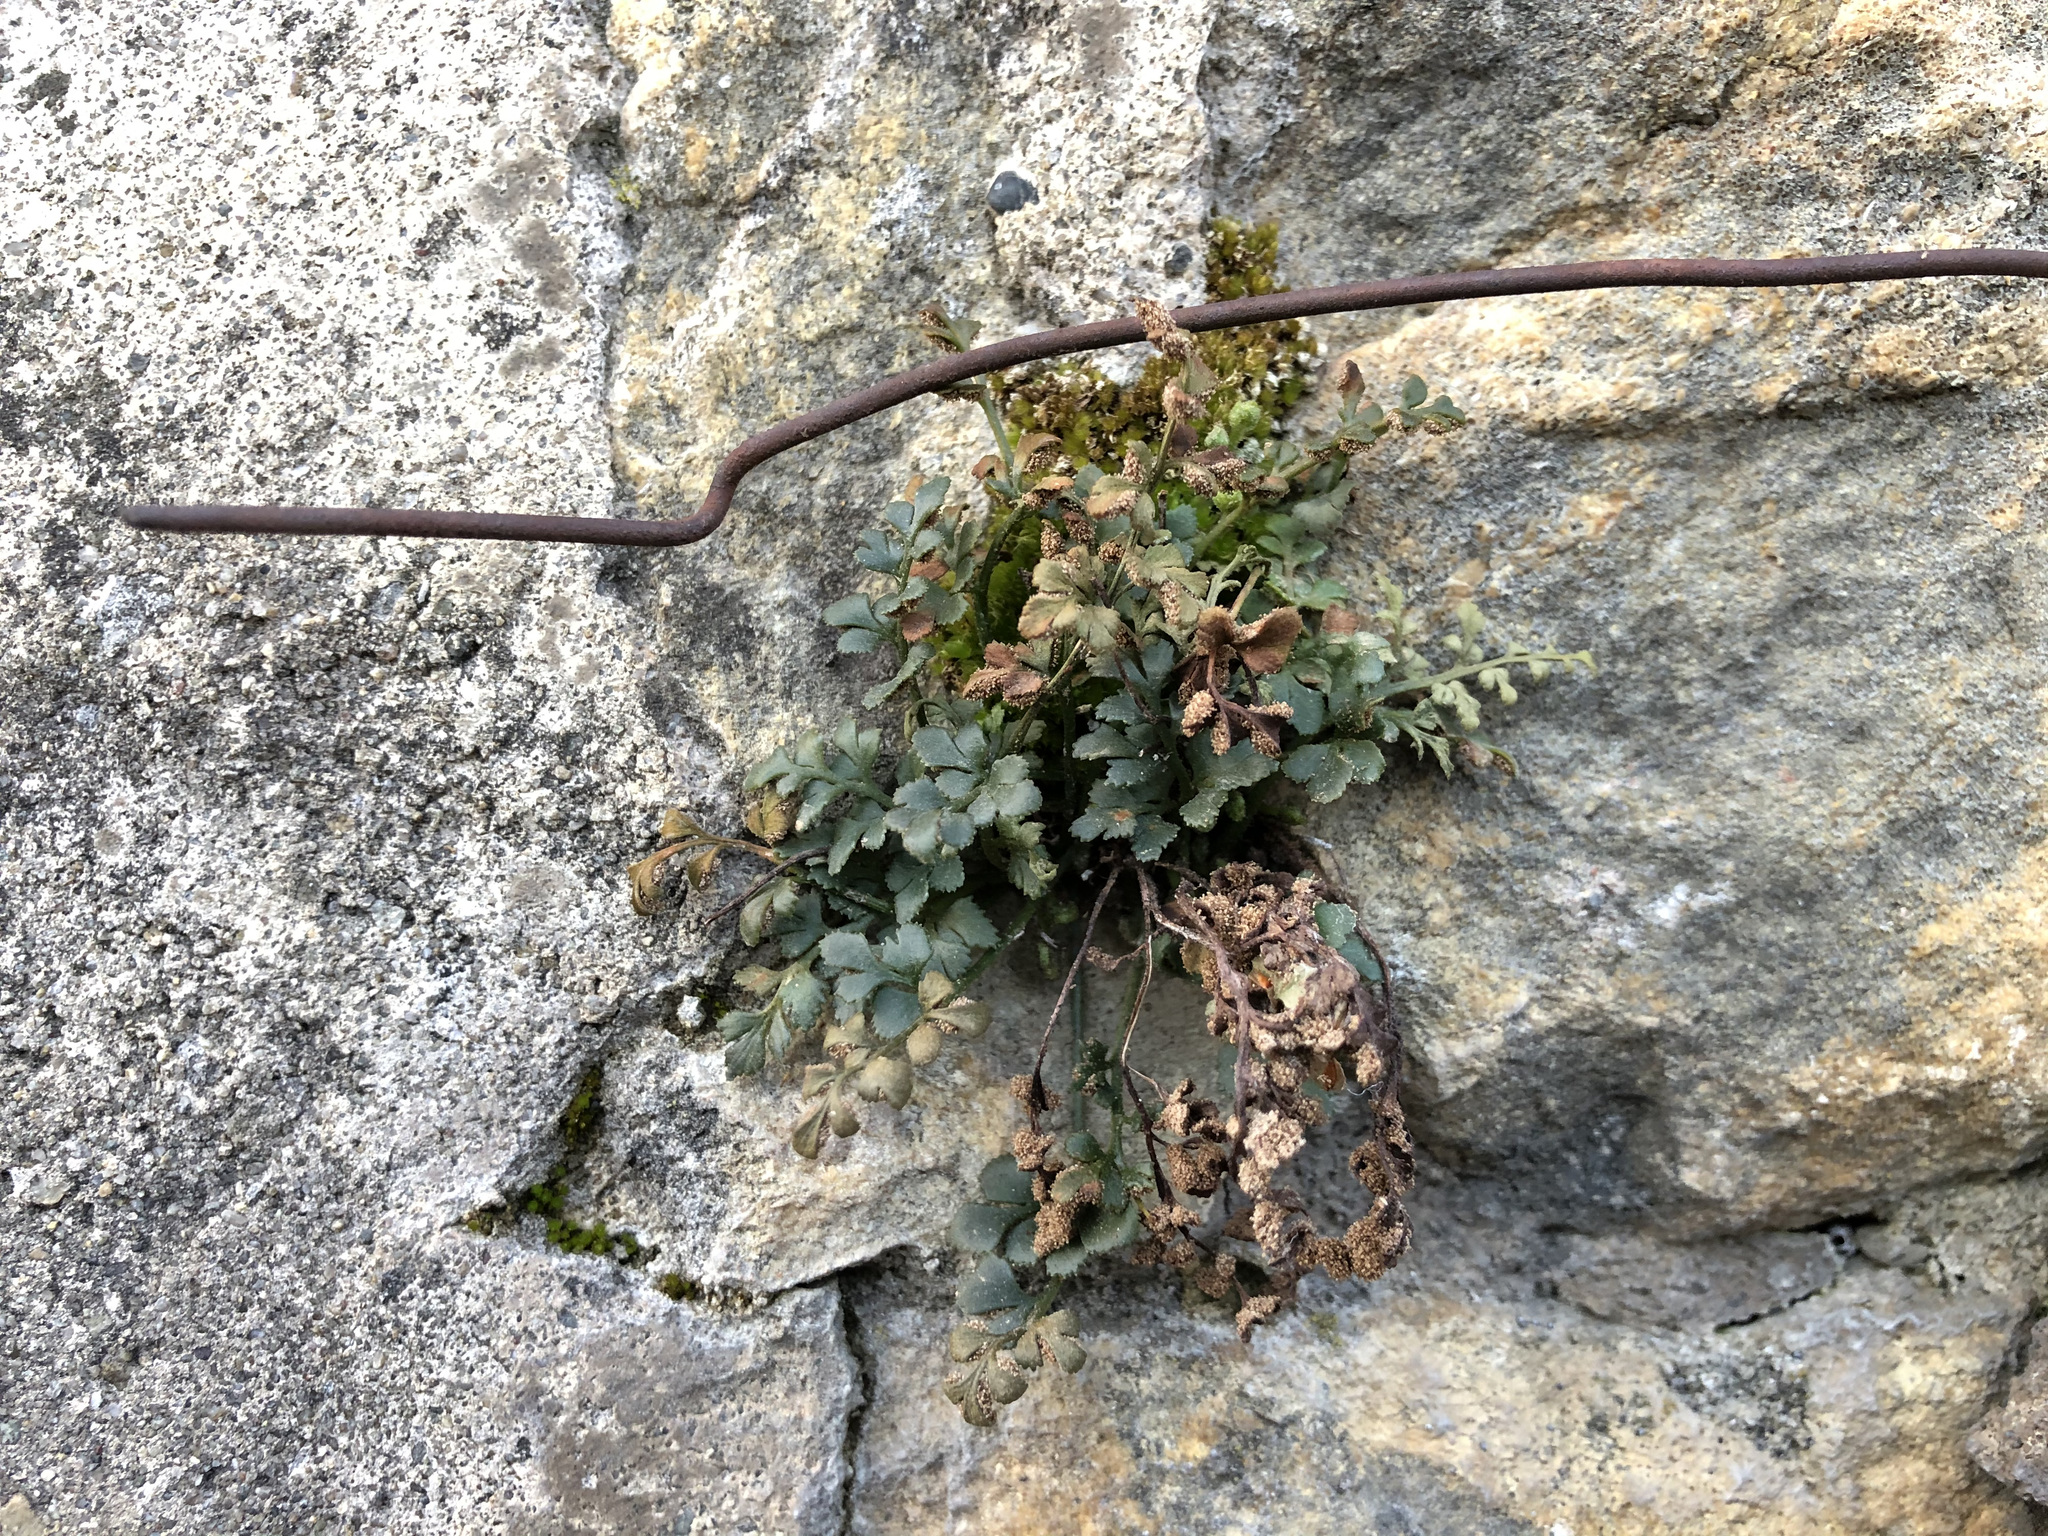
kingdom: Plantae
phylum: Tracheophyta
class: Polypodiopsida
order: Polypodiales
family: Aspleniaceae
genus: Asplenium
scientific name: Asplenium ruta-muraria
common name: Wall-rue
